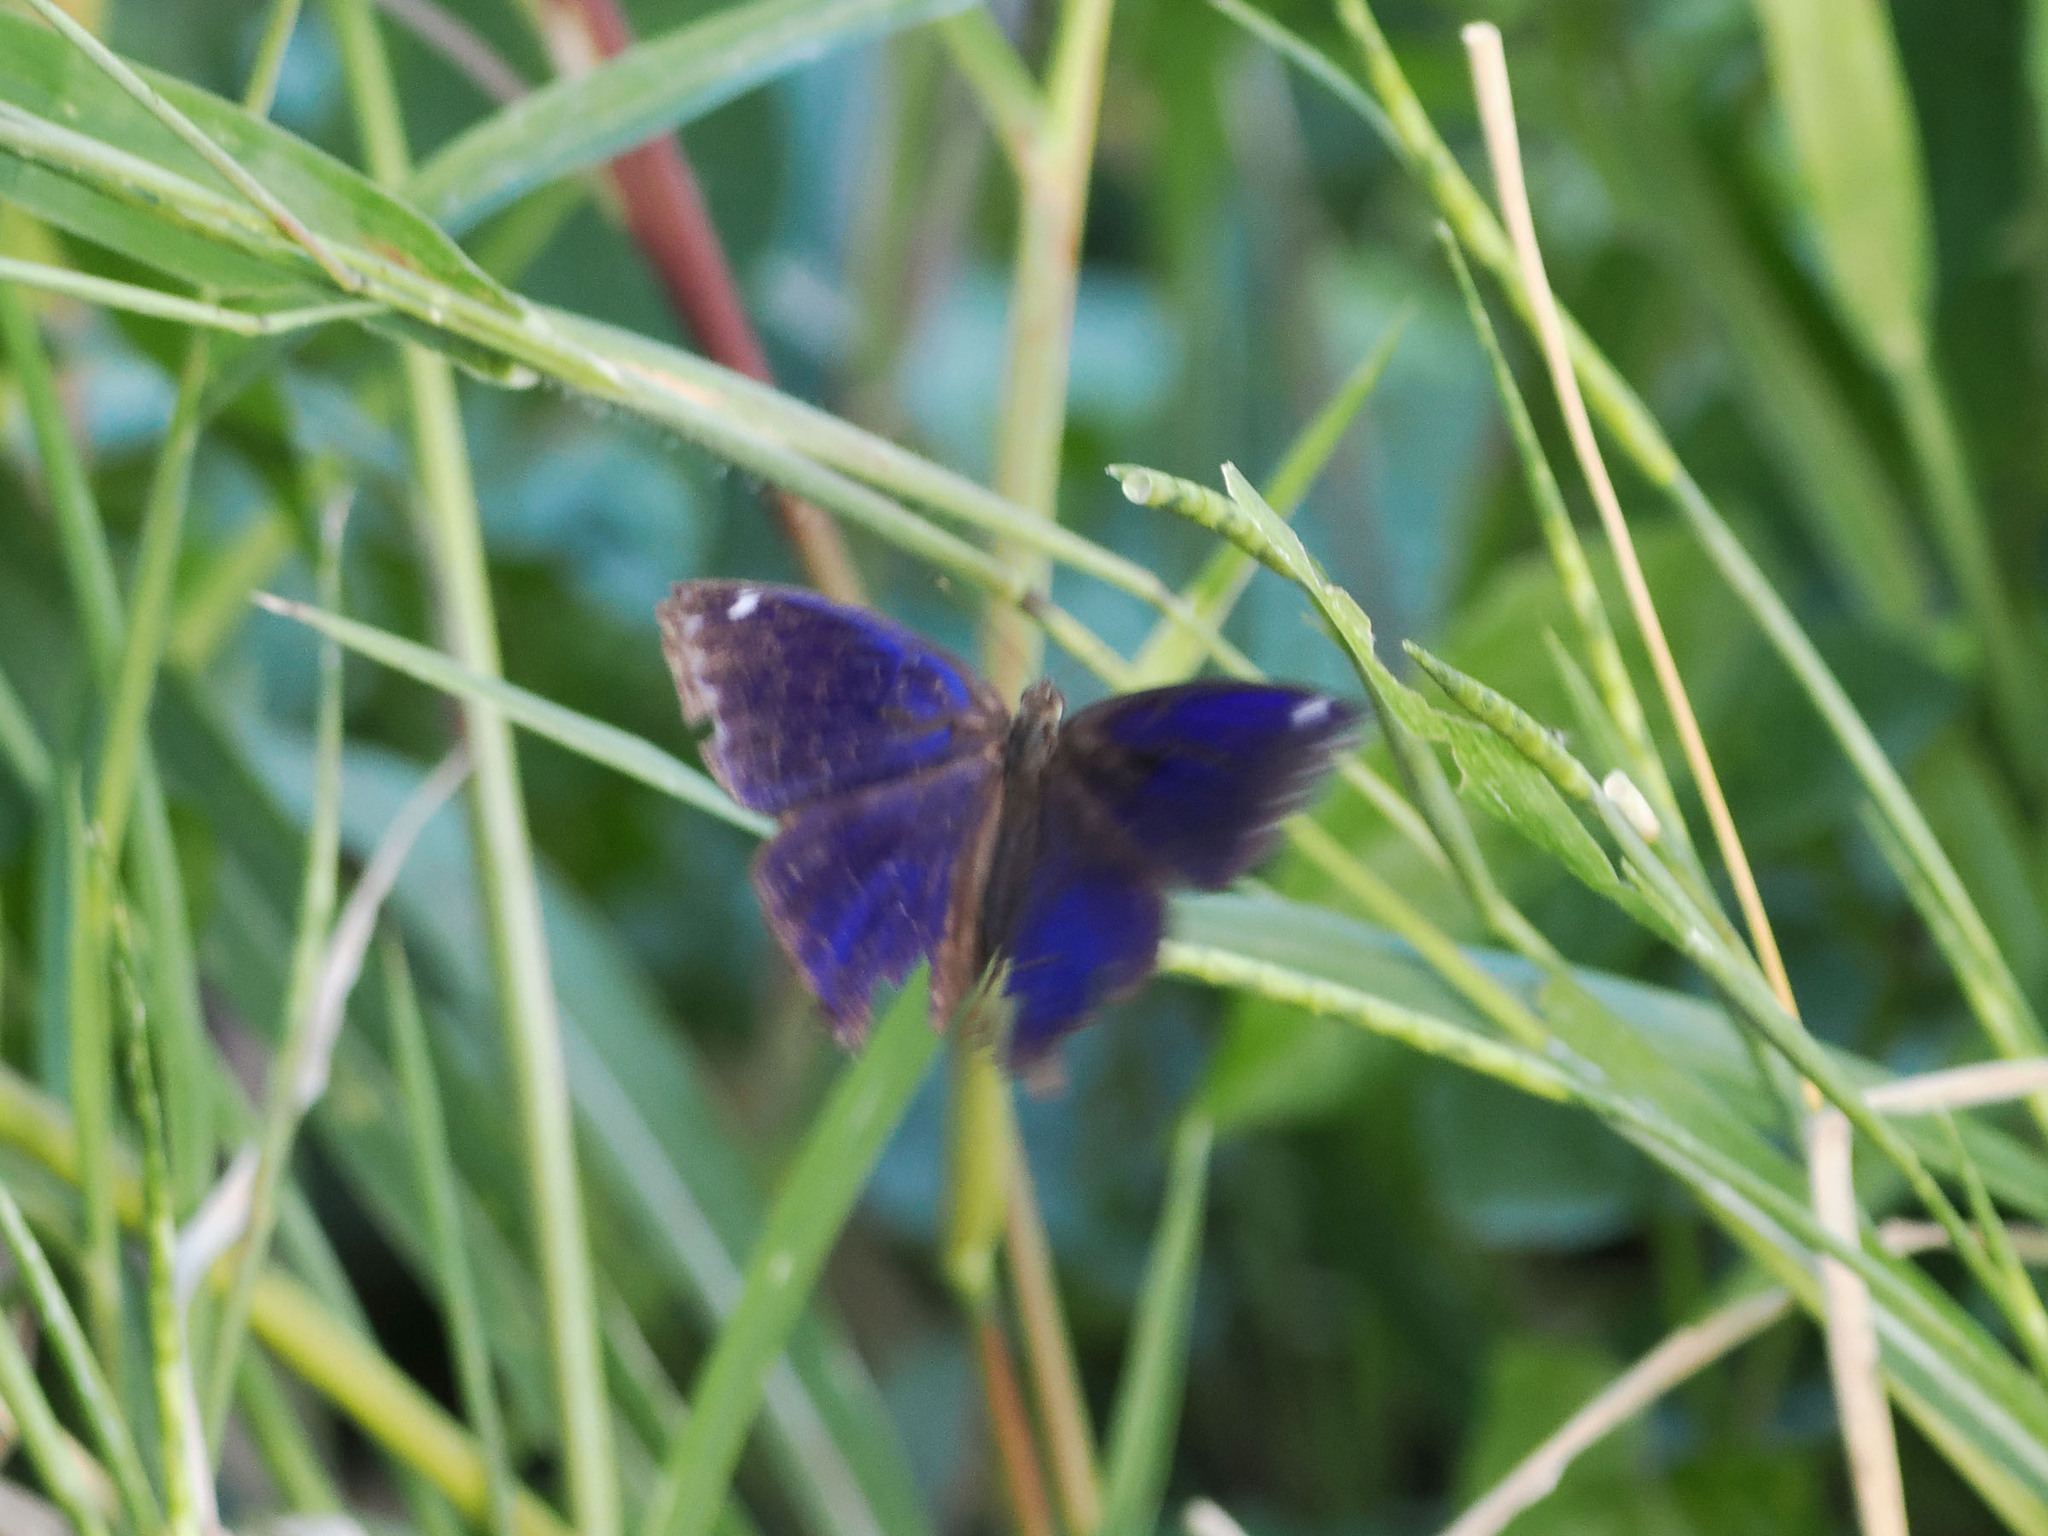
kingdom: Animalia
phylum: Arthropoda
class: Insecta
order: Lepidoptera
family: Nymphalidae
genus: Ptychandra
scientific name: Ptychandra lorquinii
